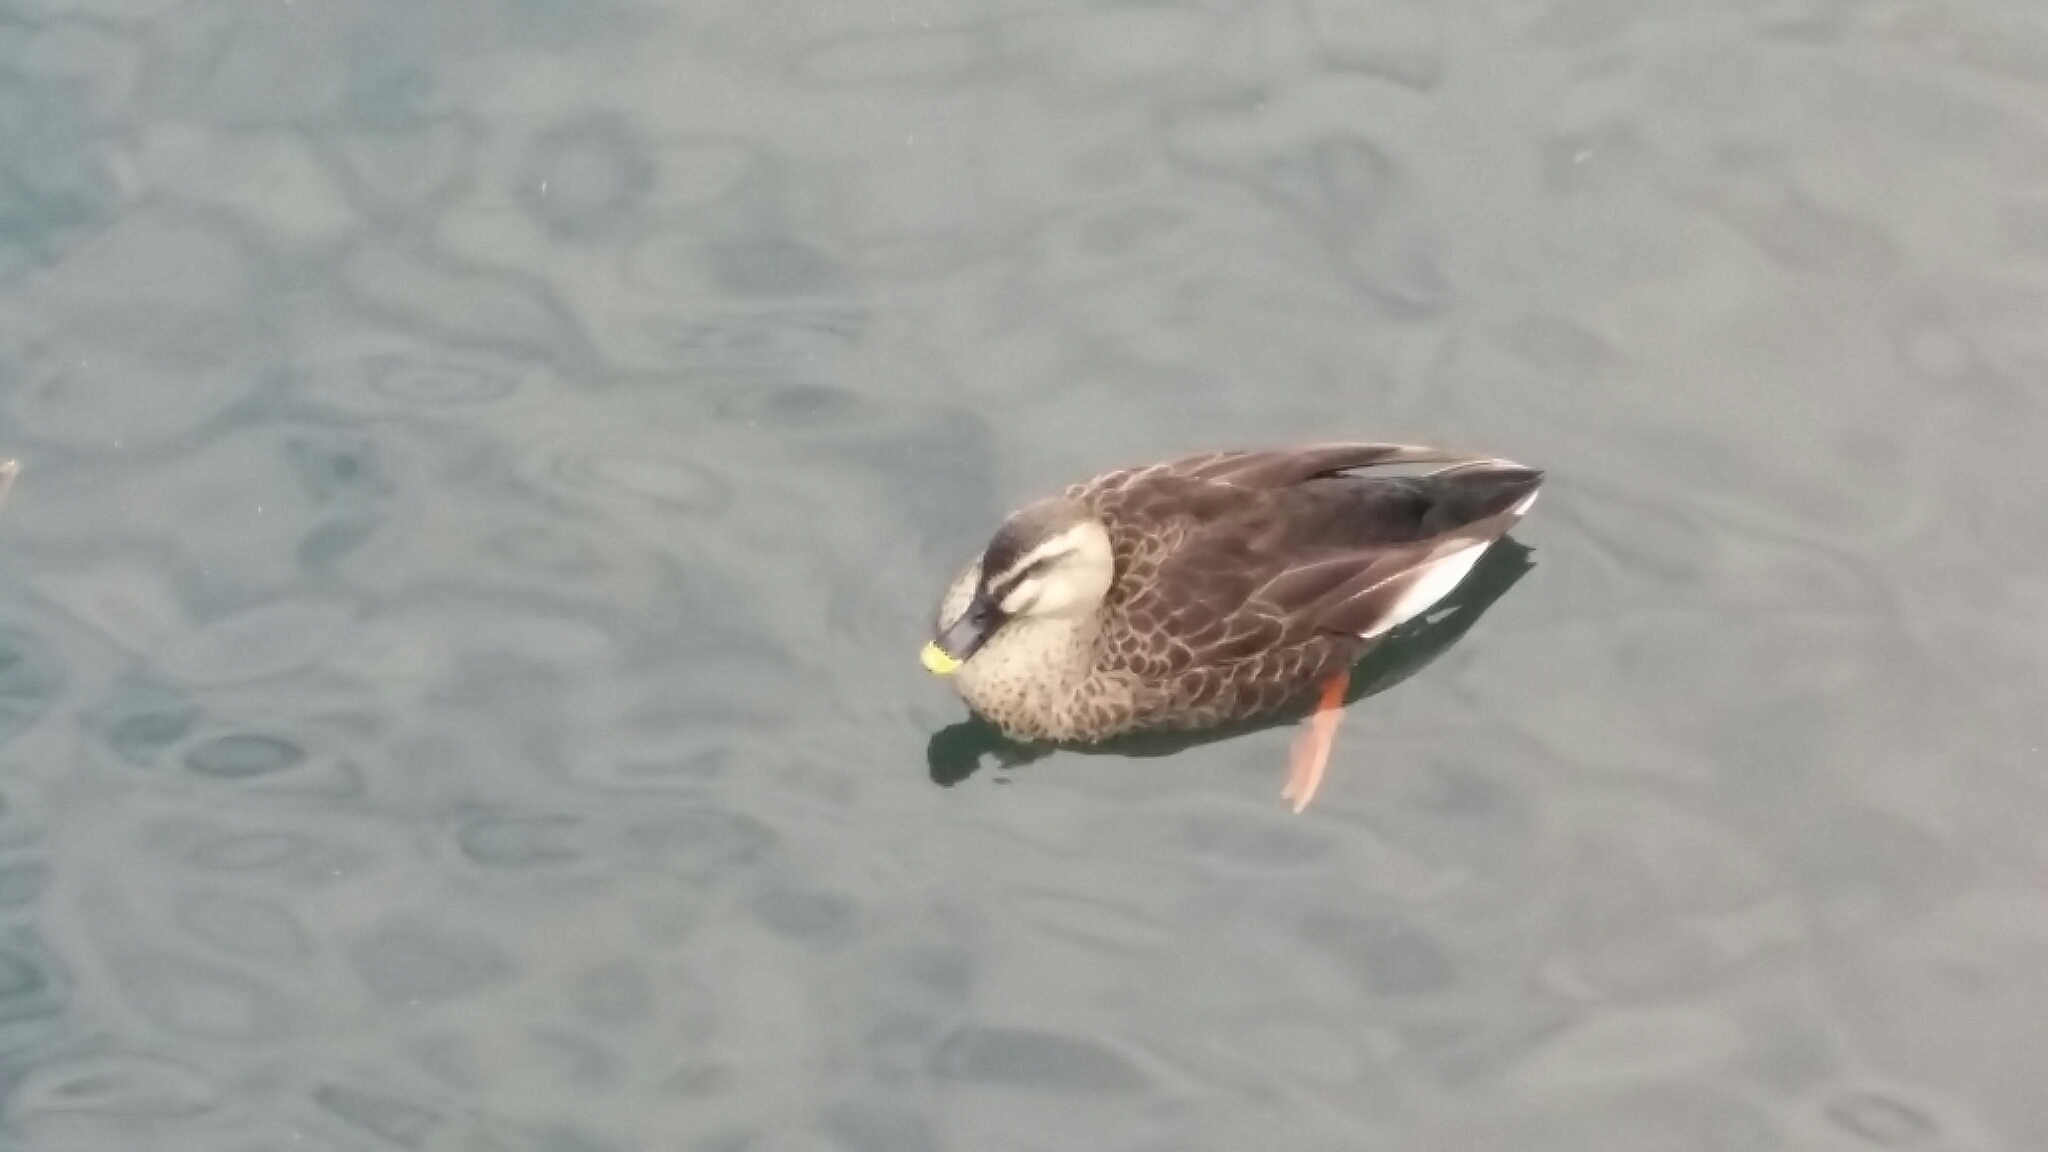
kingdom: Animalia
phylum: Chordata
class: Aves
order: Anseriformes
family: Anatidae
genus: Anas
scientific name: Anas zonorhyncha
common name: Eastern spot-billed duck
